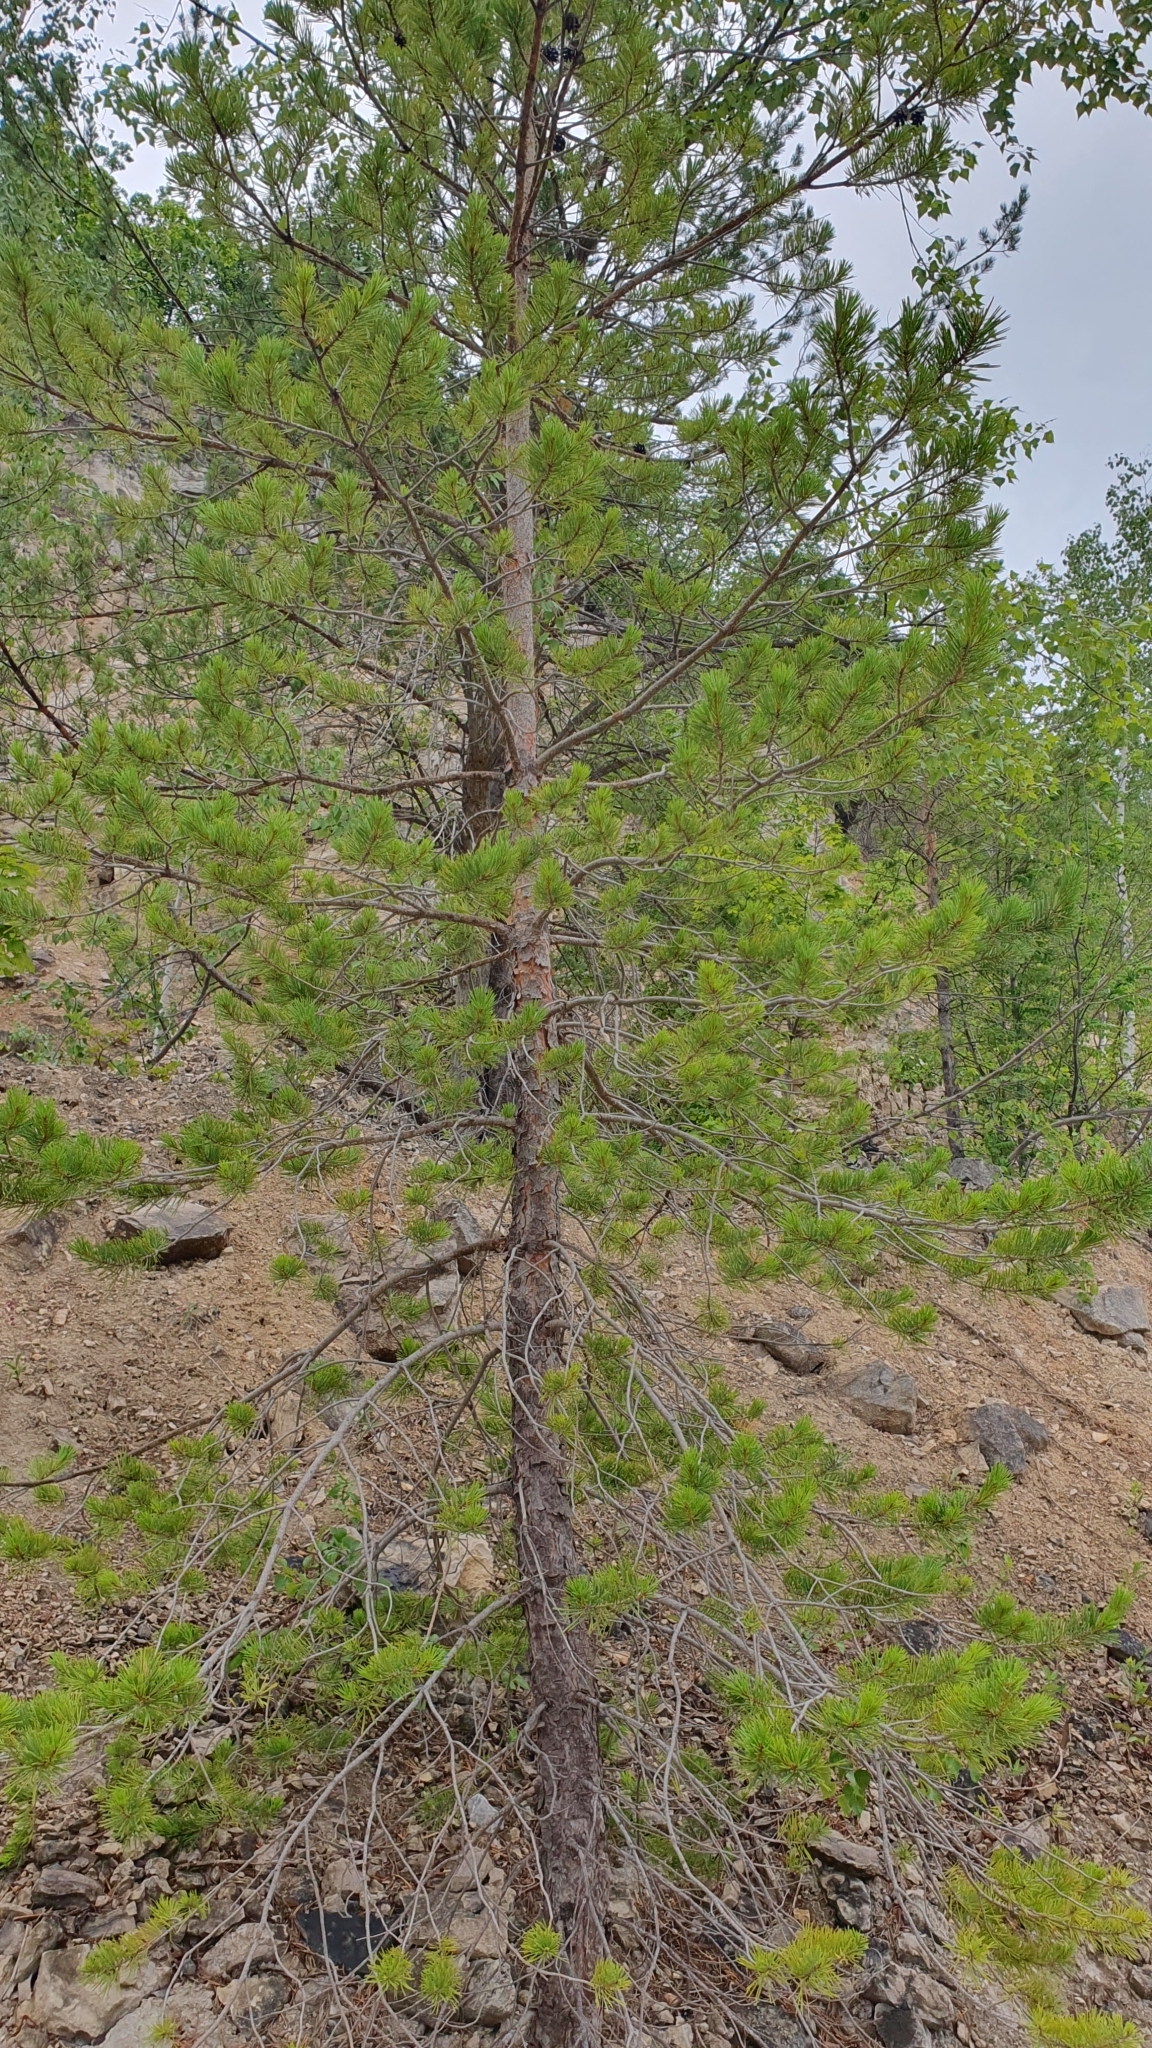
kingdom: Plantae
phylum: Tracheophyta
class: Pinopsida
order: Pinales
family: Pinaceae
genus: Pinus
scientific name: Pinus sylvestris
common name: Scots pine
